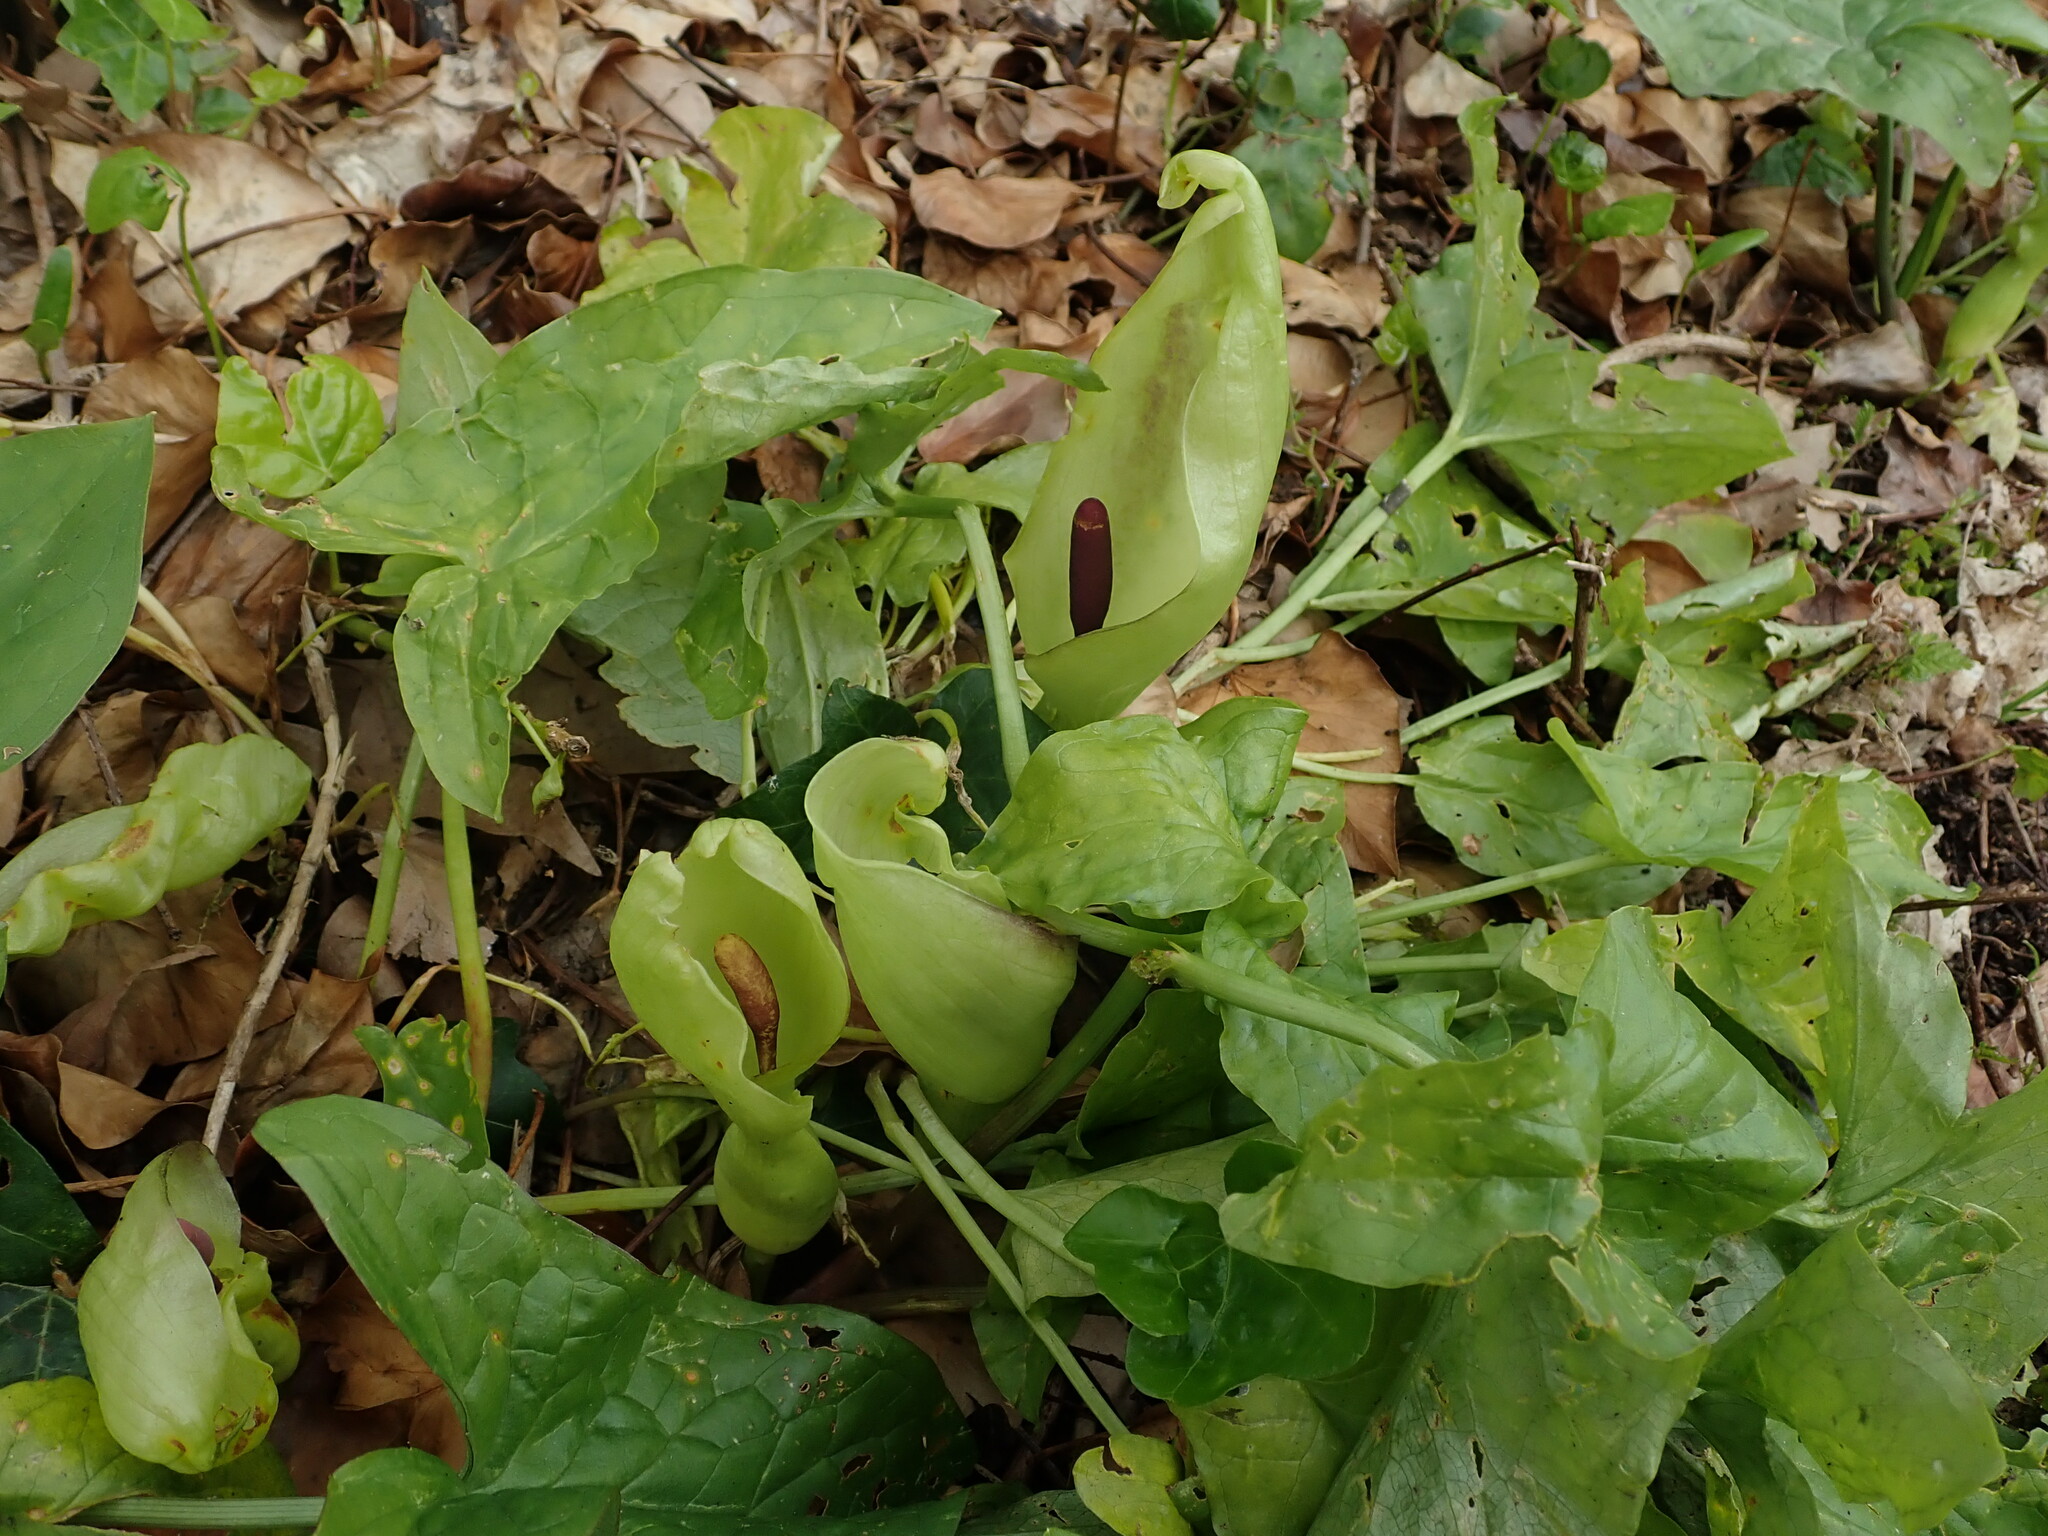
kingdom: Plantae
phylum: Tracheophyta
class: Liliopsida
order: Alismatales
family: Araceae
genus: Arum
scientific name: Arum maculatum
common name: Lords-and-ladies
